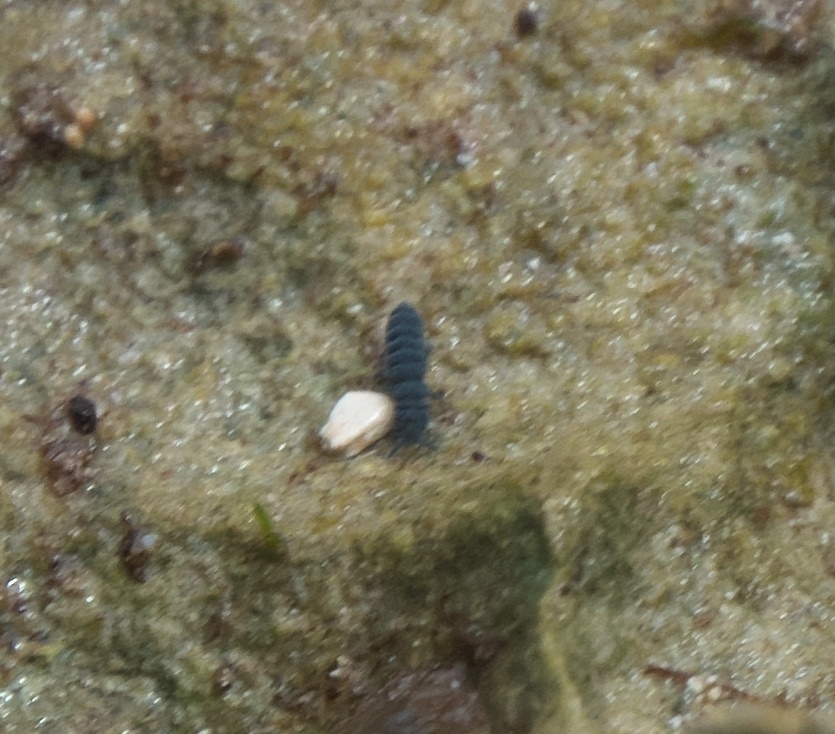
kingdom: Animalia
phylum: Arthropoda
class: Collembola
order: Poduromorpha
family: Neanuridae
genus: Anurida
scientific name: Anurida maritima
